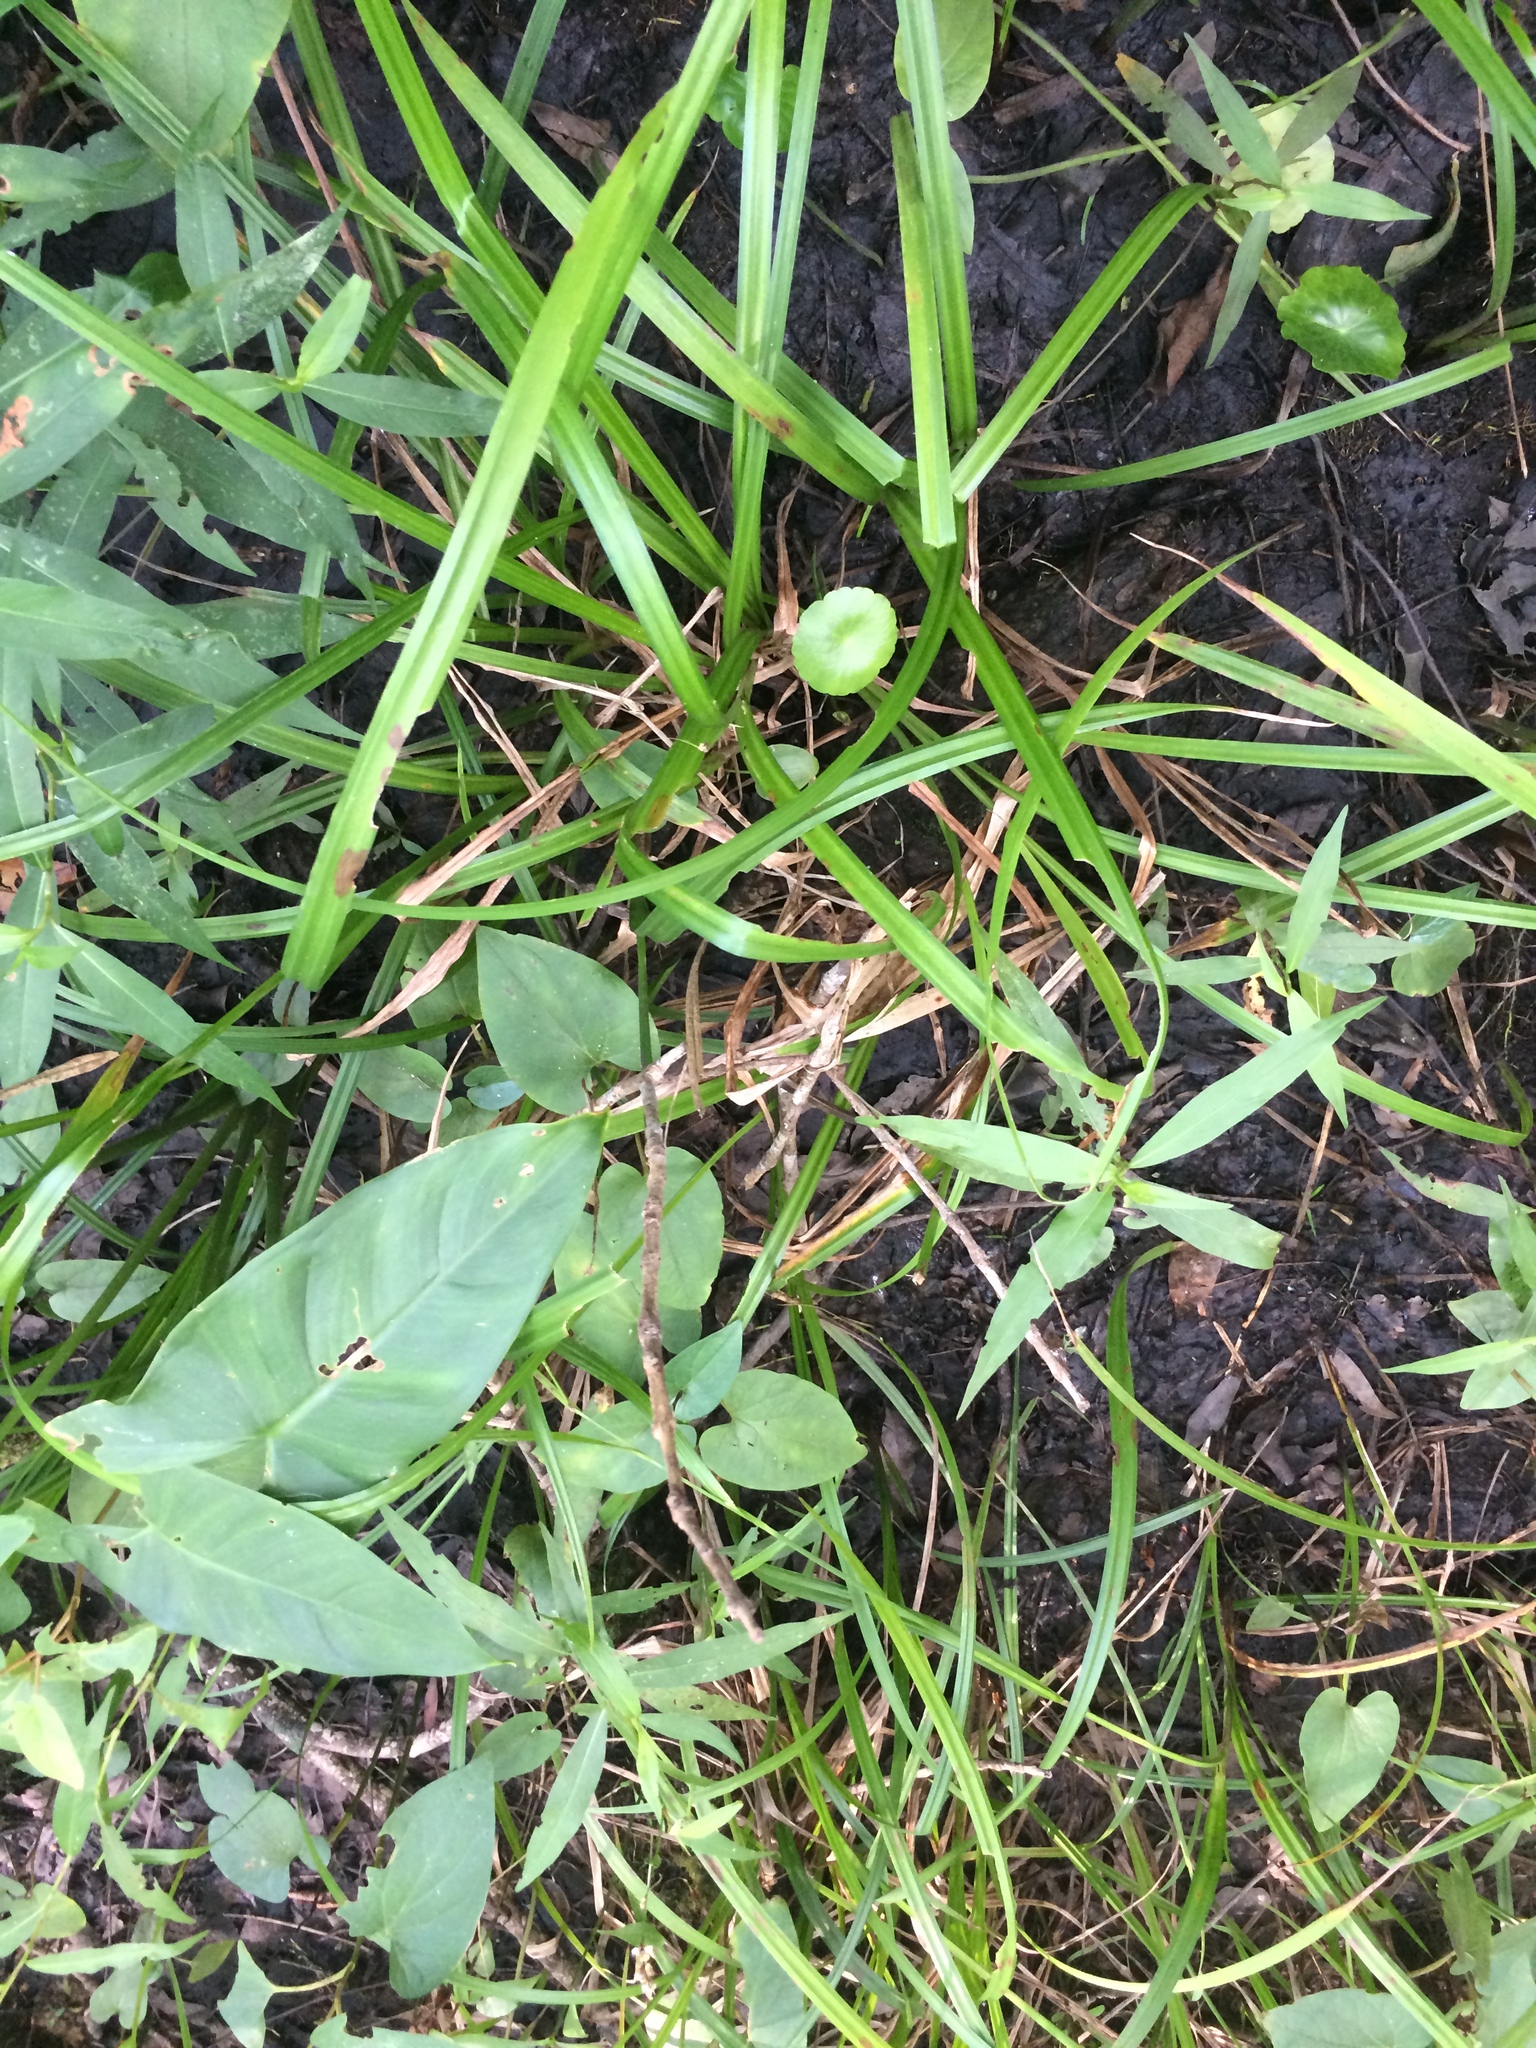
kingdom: Plantae
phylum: Tracheophyta
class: Liliopsida
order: Poales
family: Cyperaceae
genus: Carex
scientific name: Carex gigantea
